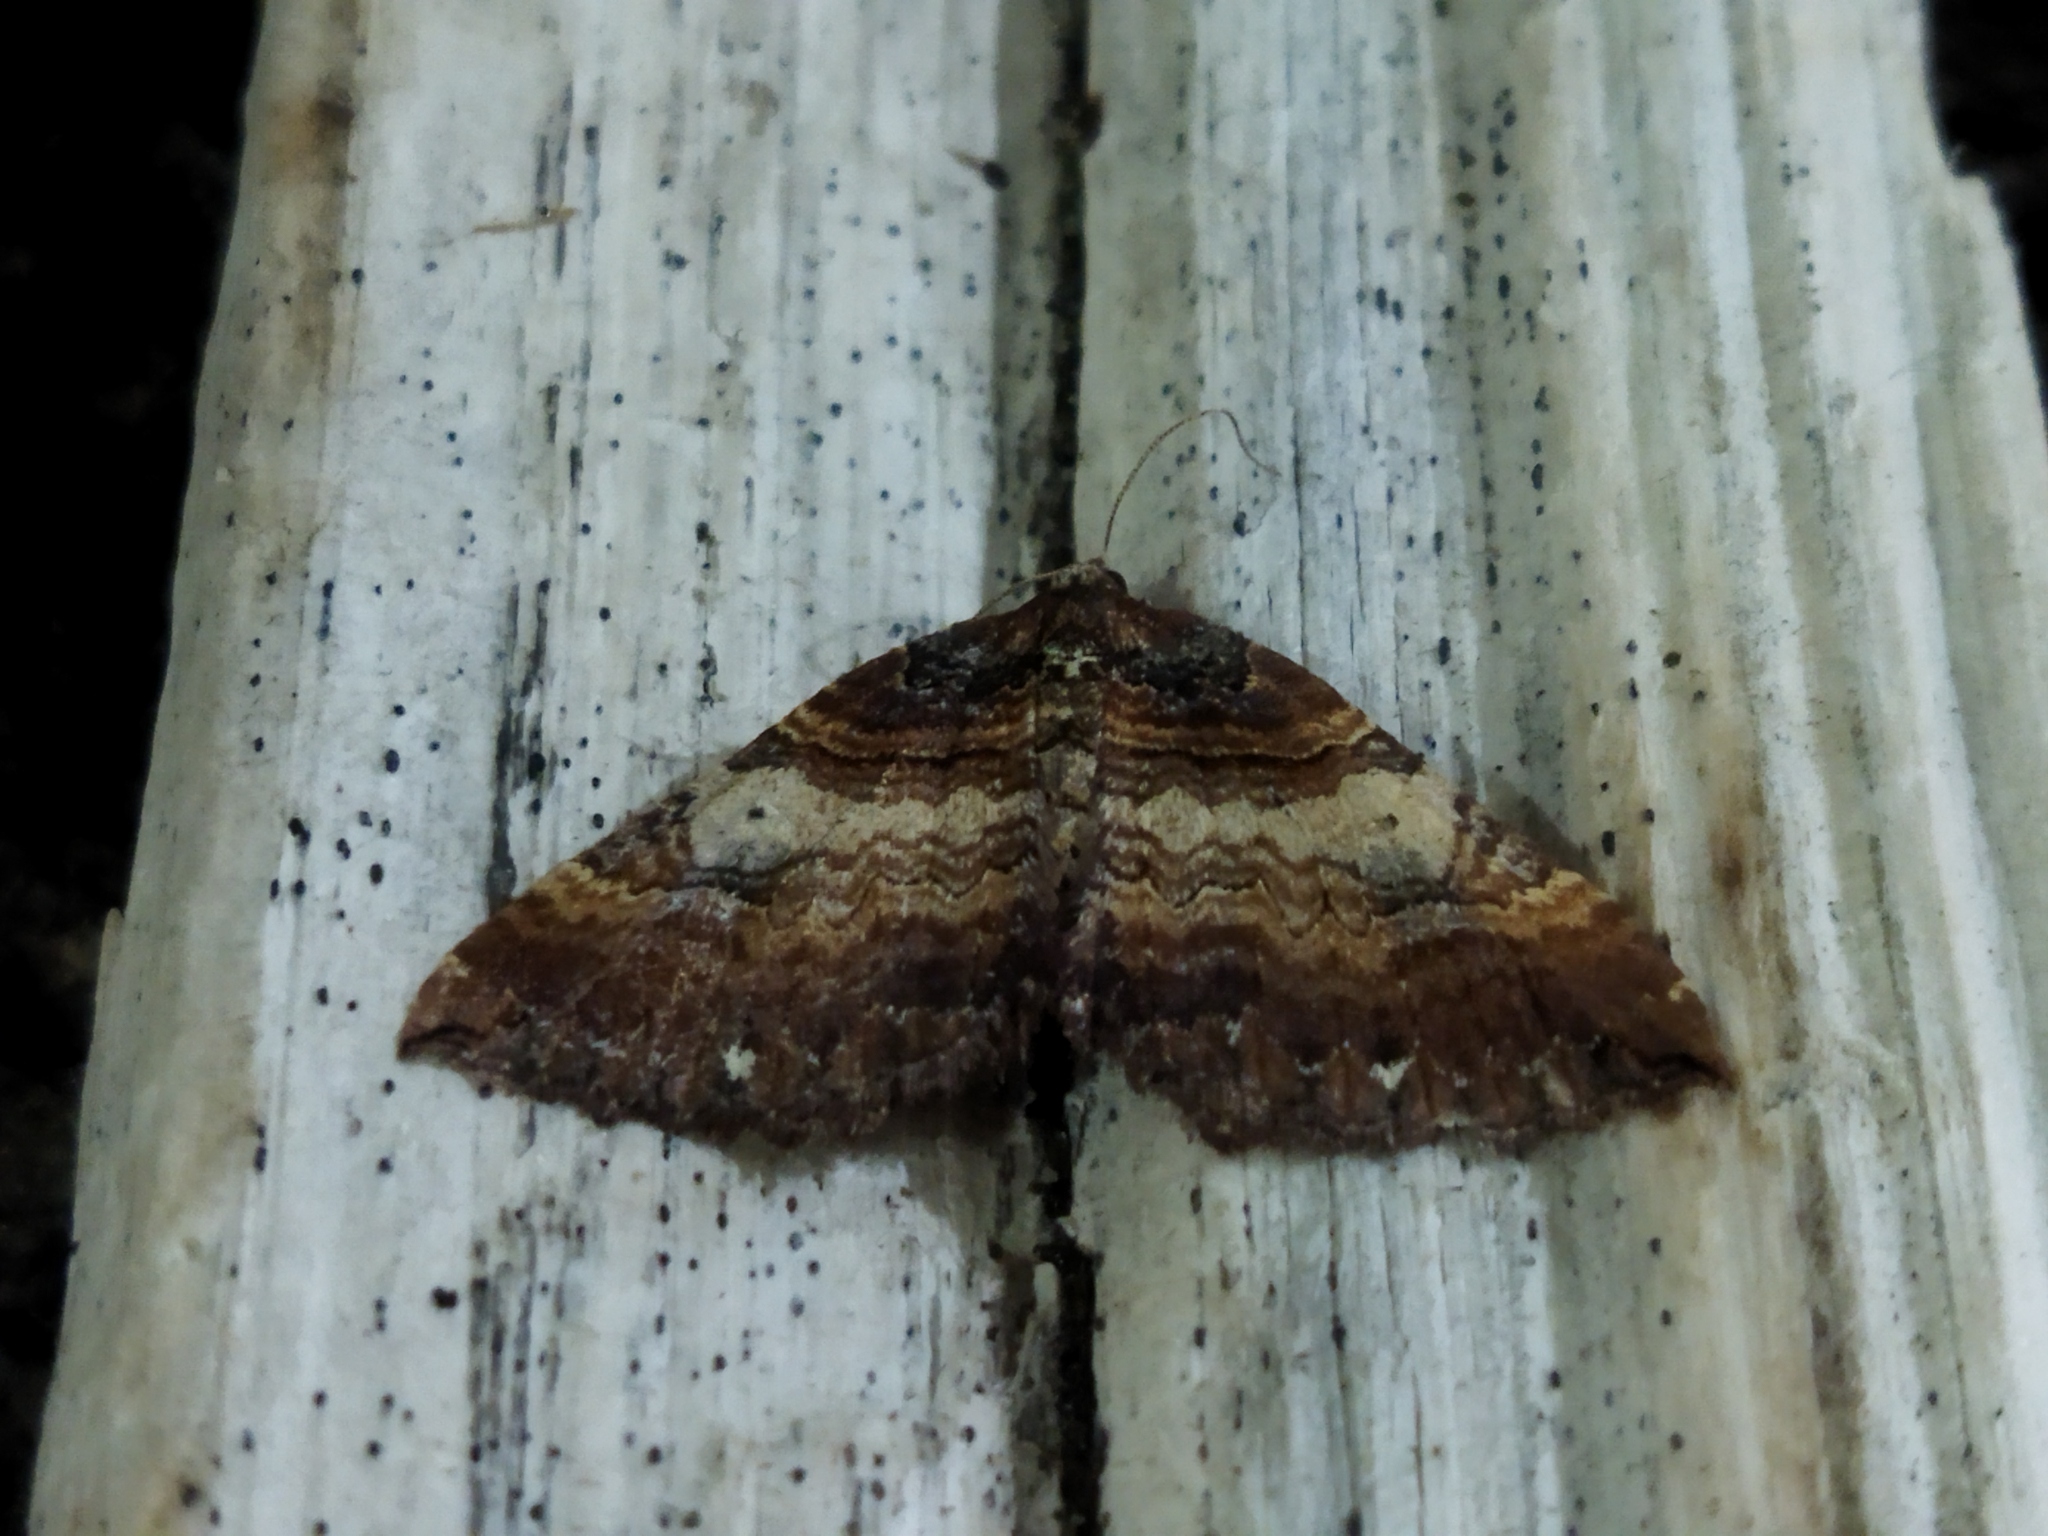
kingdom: Animalia
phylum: Arthropoda
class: Insecta
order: Lepidoptera
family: Geometridae
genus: Anticlea
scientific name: Anticlea badiata
